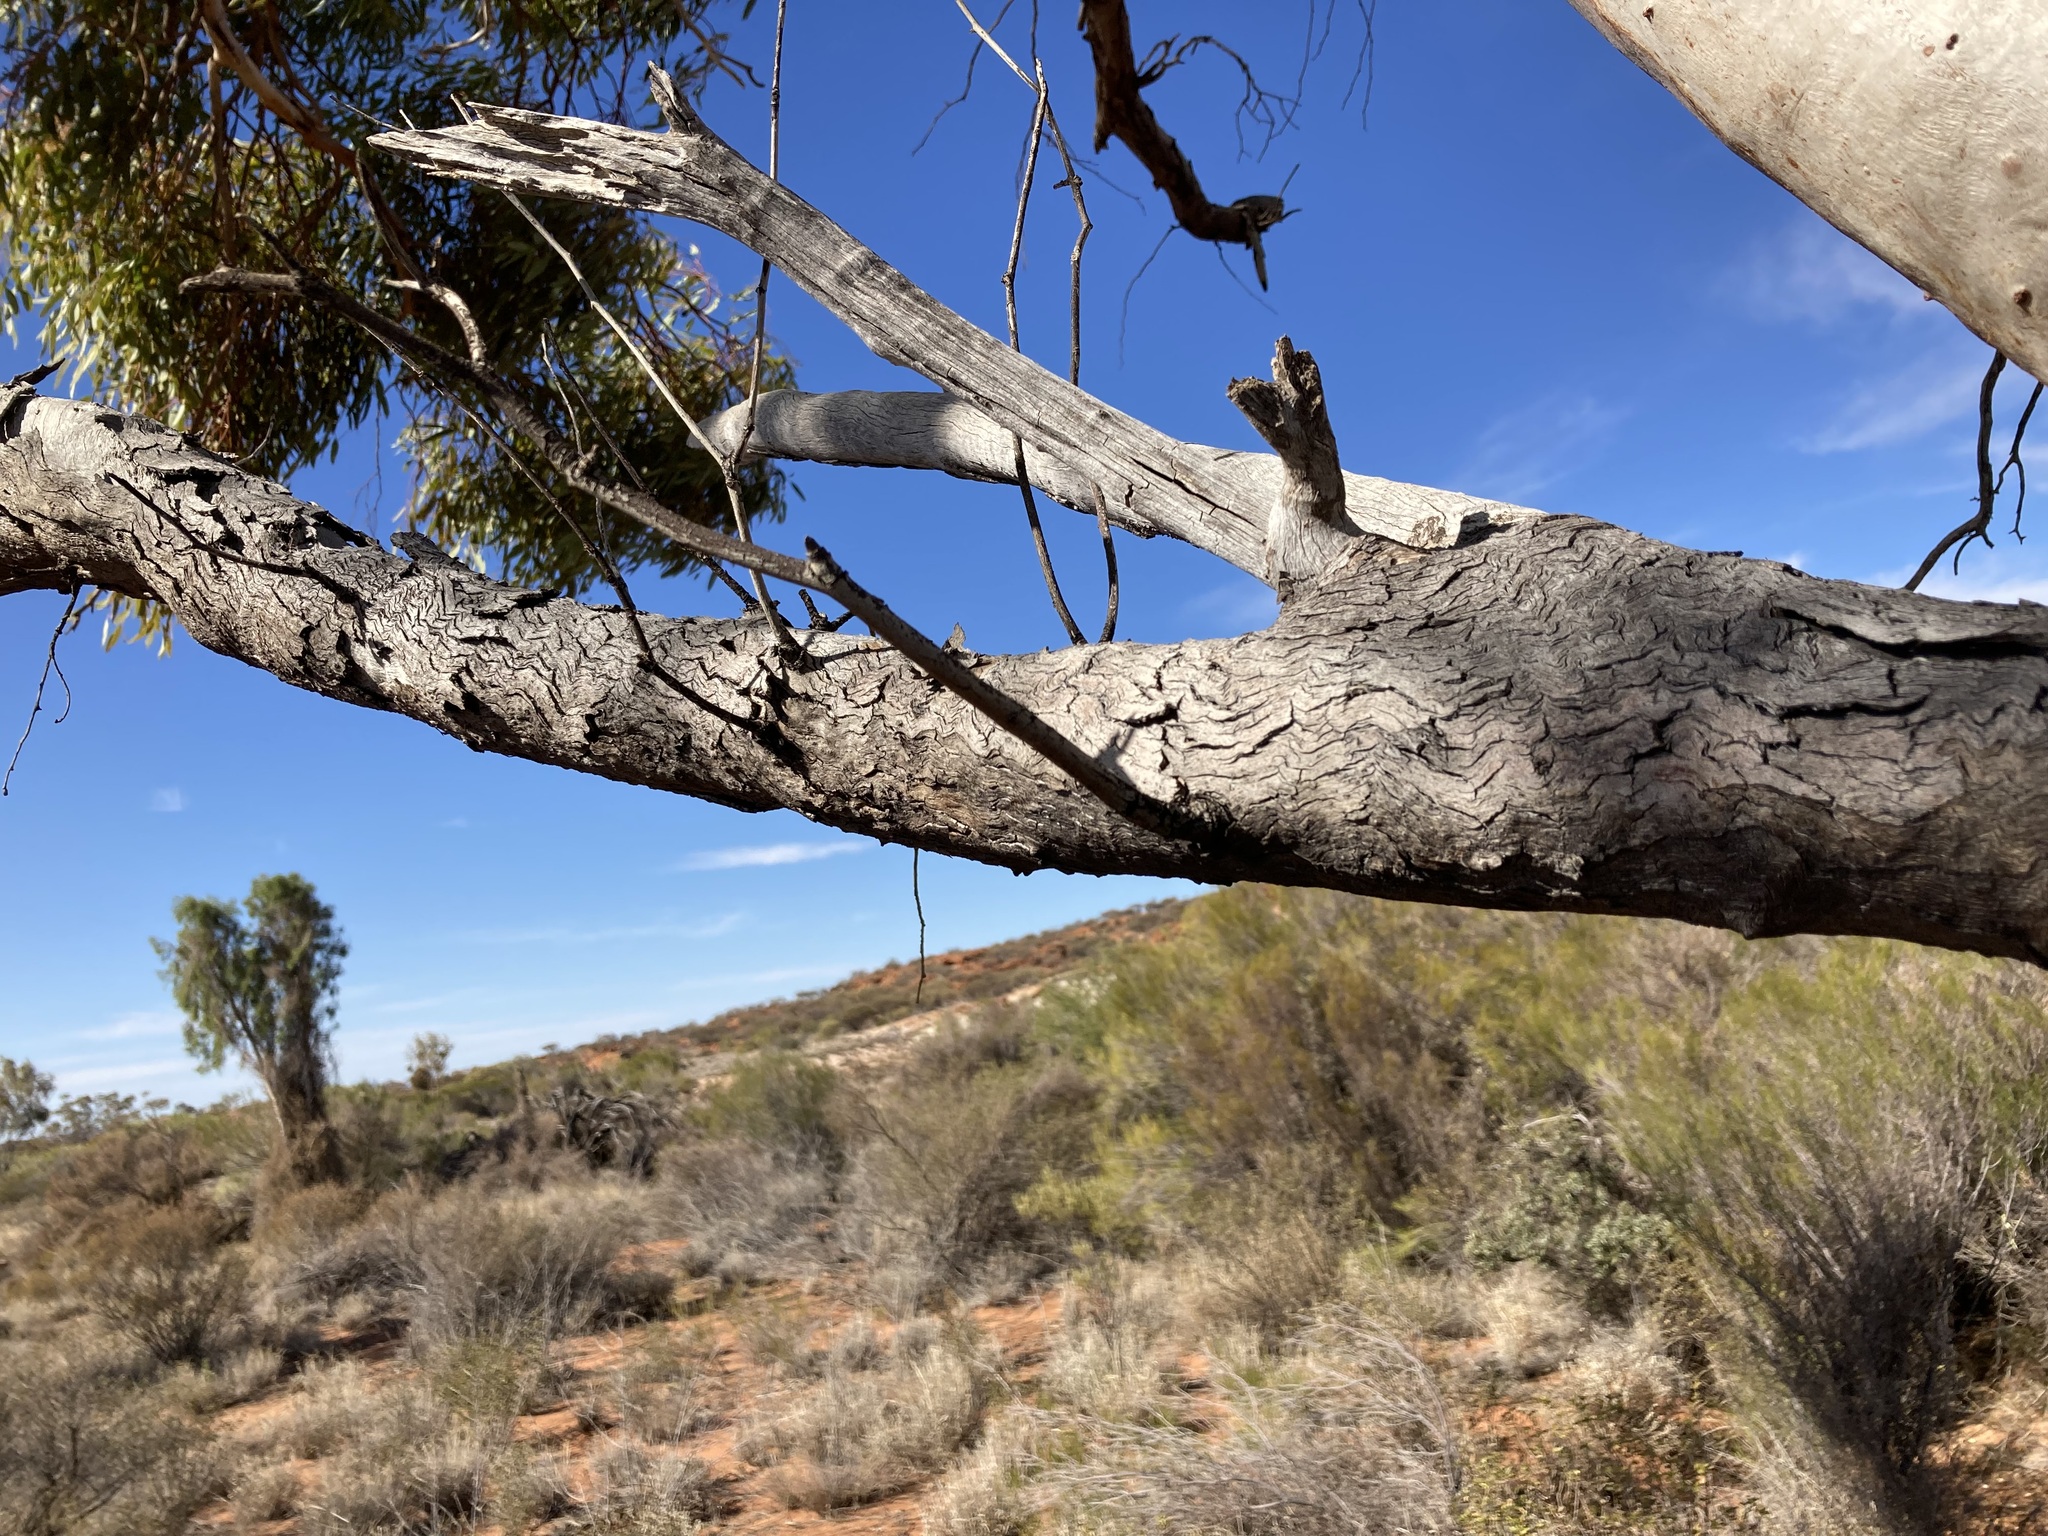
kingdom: Plantae
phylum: Tracheophyta
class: Magnoliopsida
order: Myrtales
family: Myrtaceae
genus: Eucalyptus
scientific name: Eucalyptus lucasii
